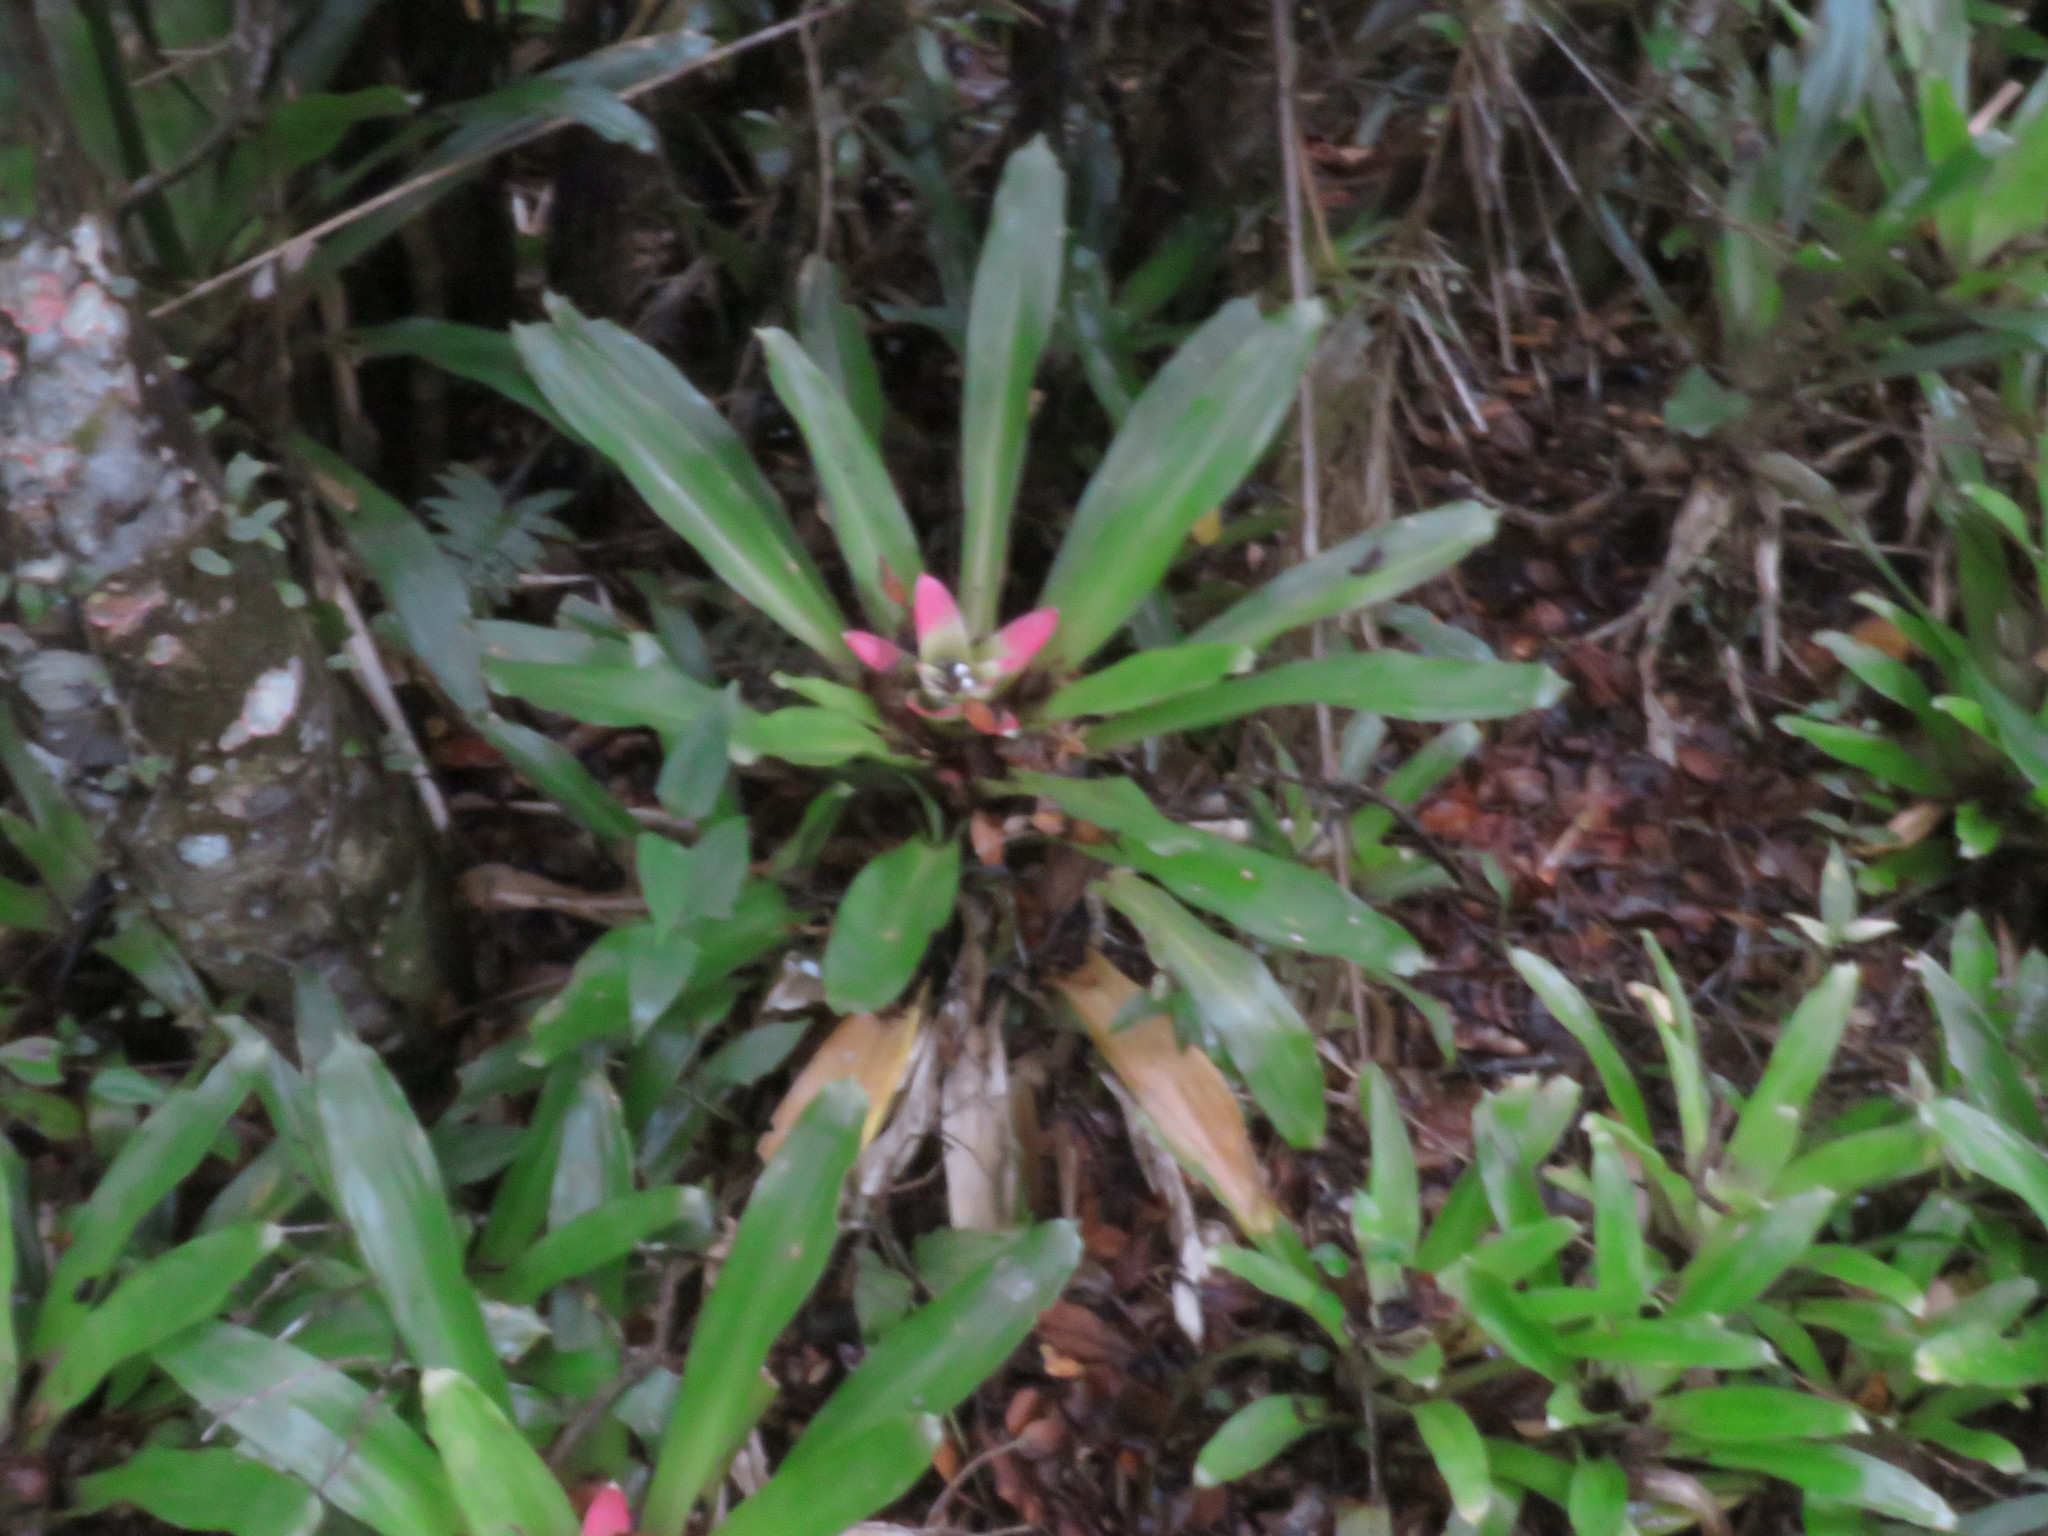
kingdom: Plantae
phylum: Tracheophyta
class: Liliopsida
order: Poales
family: Bromeliaceae
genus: Nidularium
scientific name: Nidularium innocentii
